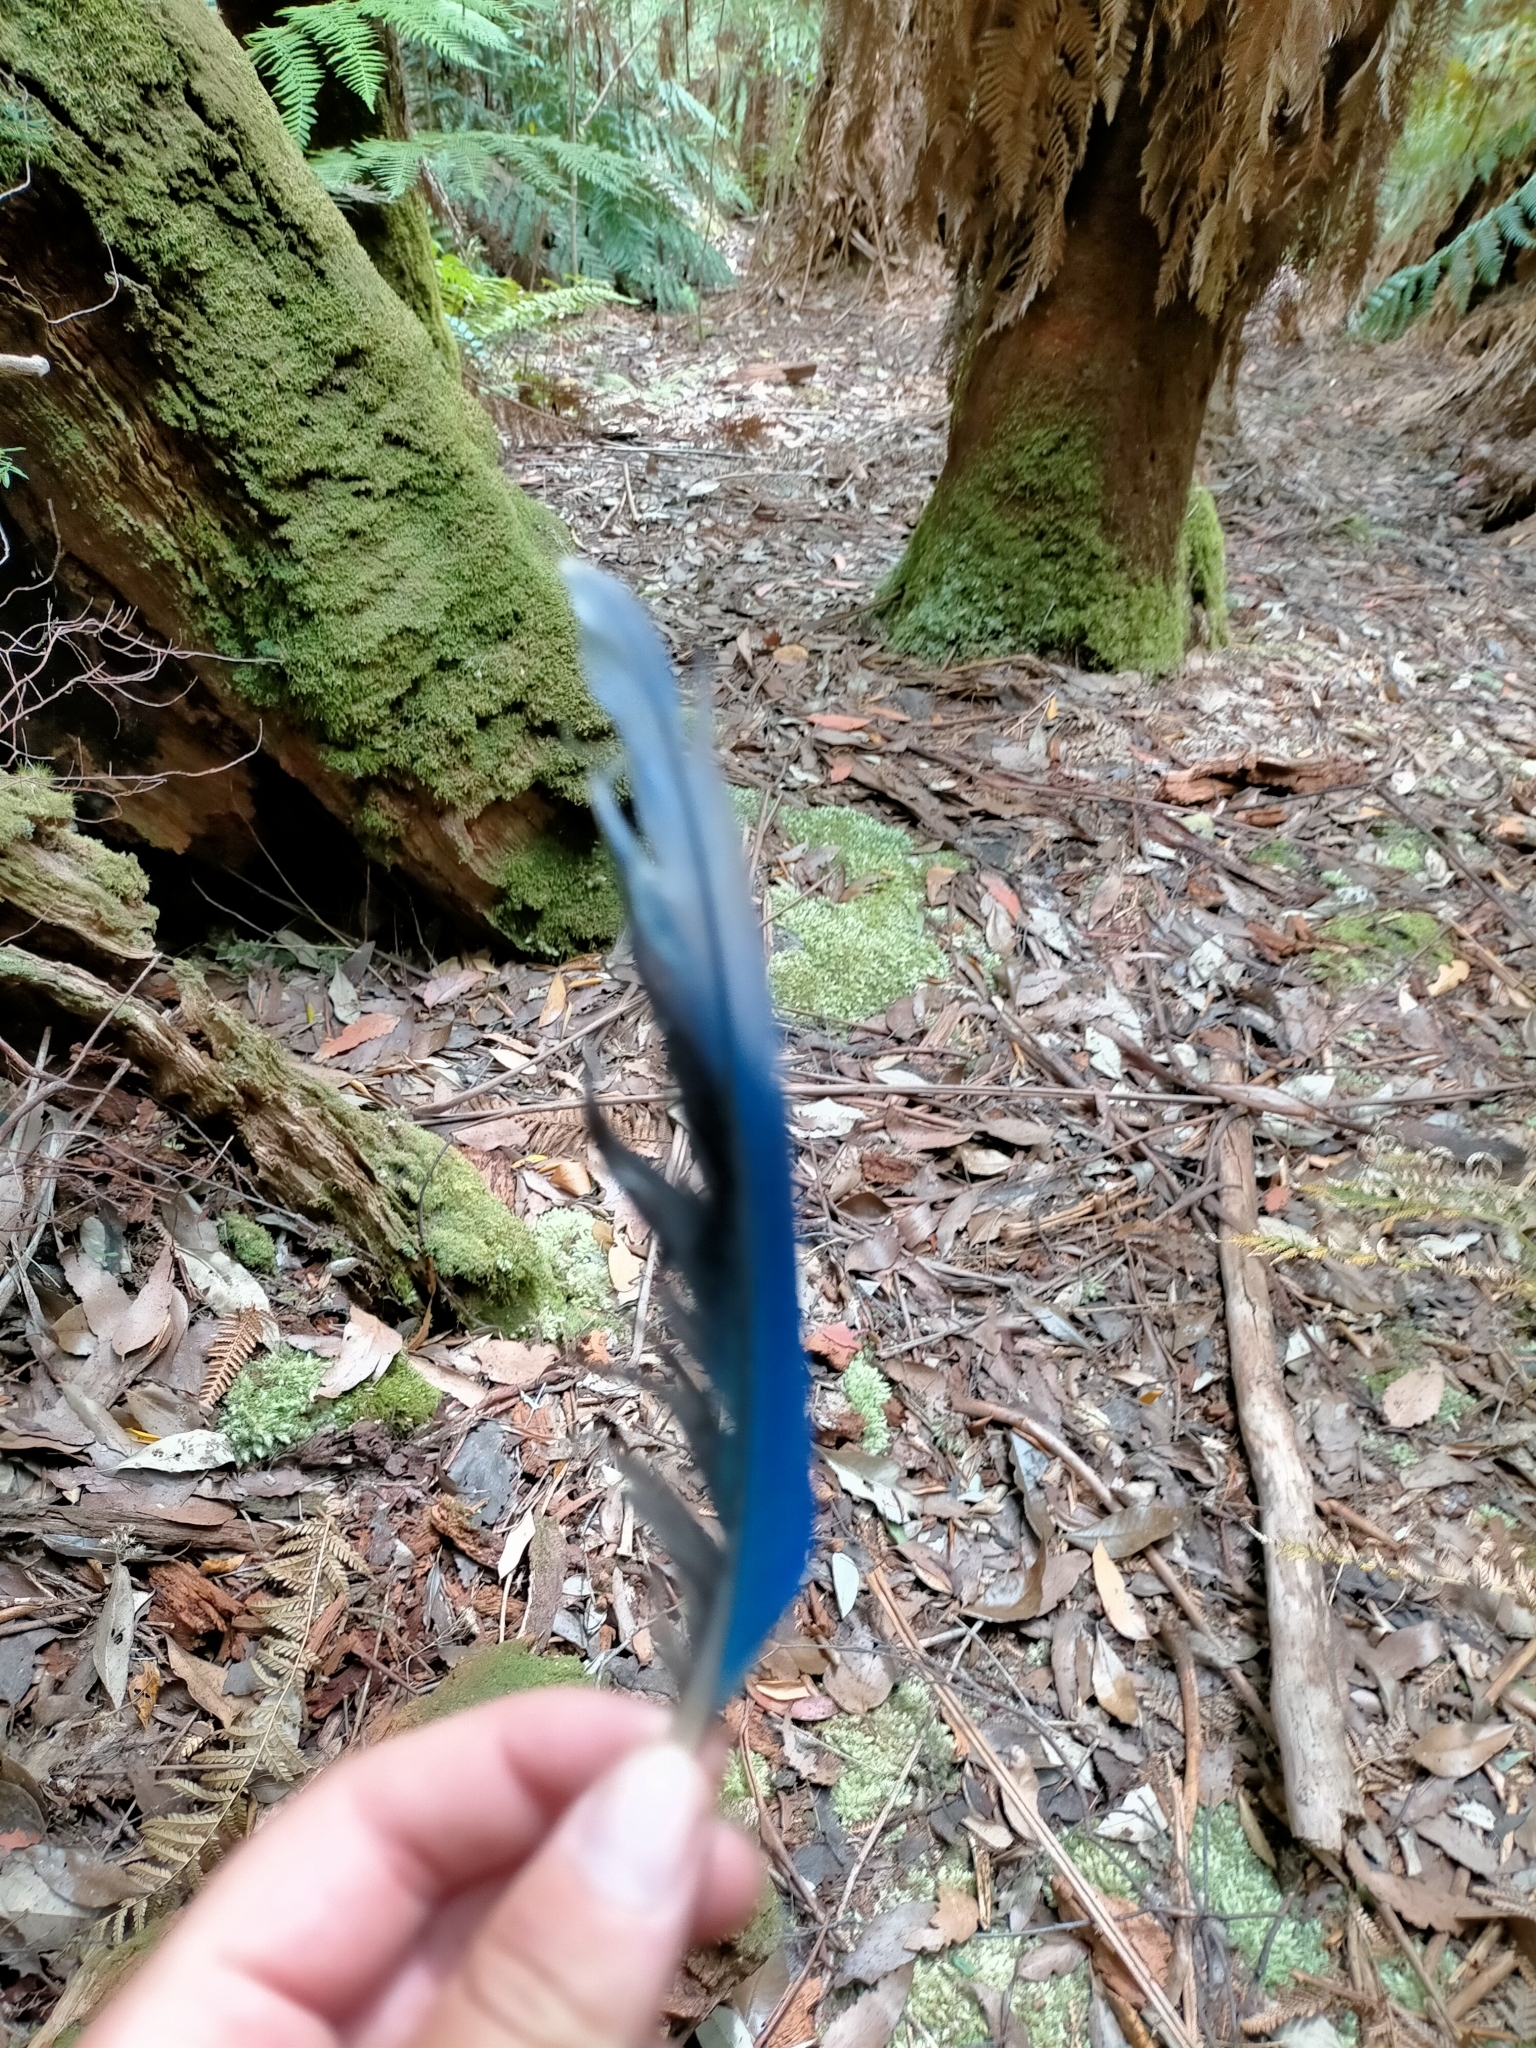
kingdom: Animalia
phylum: Chordata
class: Aves
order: Psittaciformes
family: Psittacidae
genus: Platycercus
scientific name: Platycercus caledonicus
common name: Green rosella
